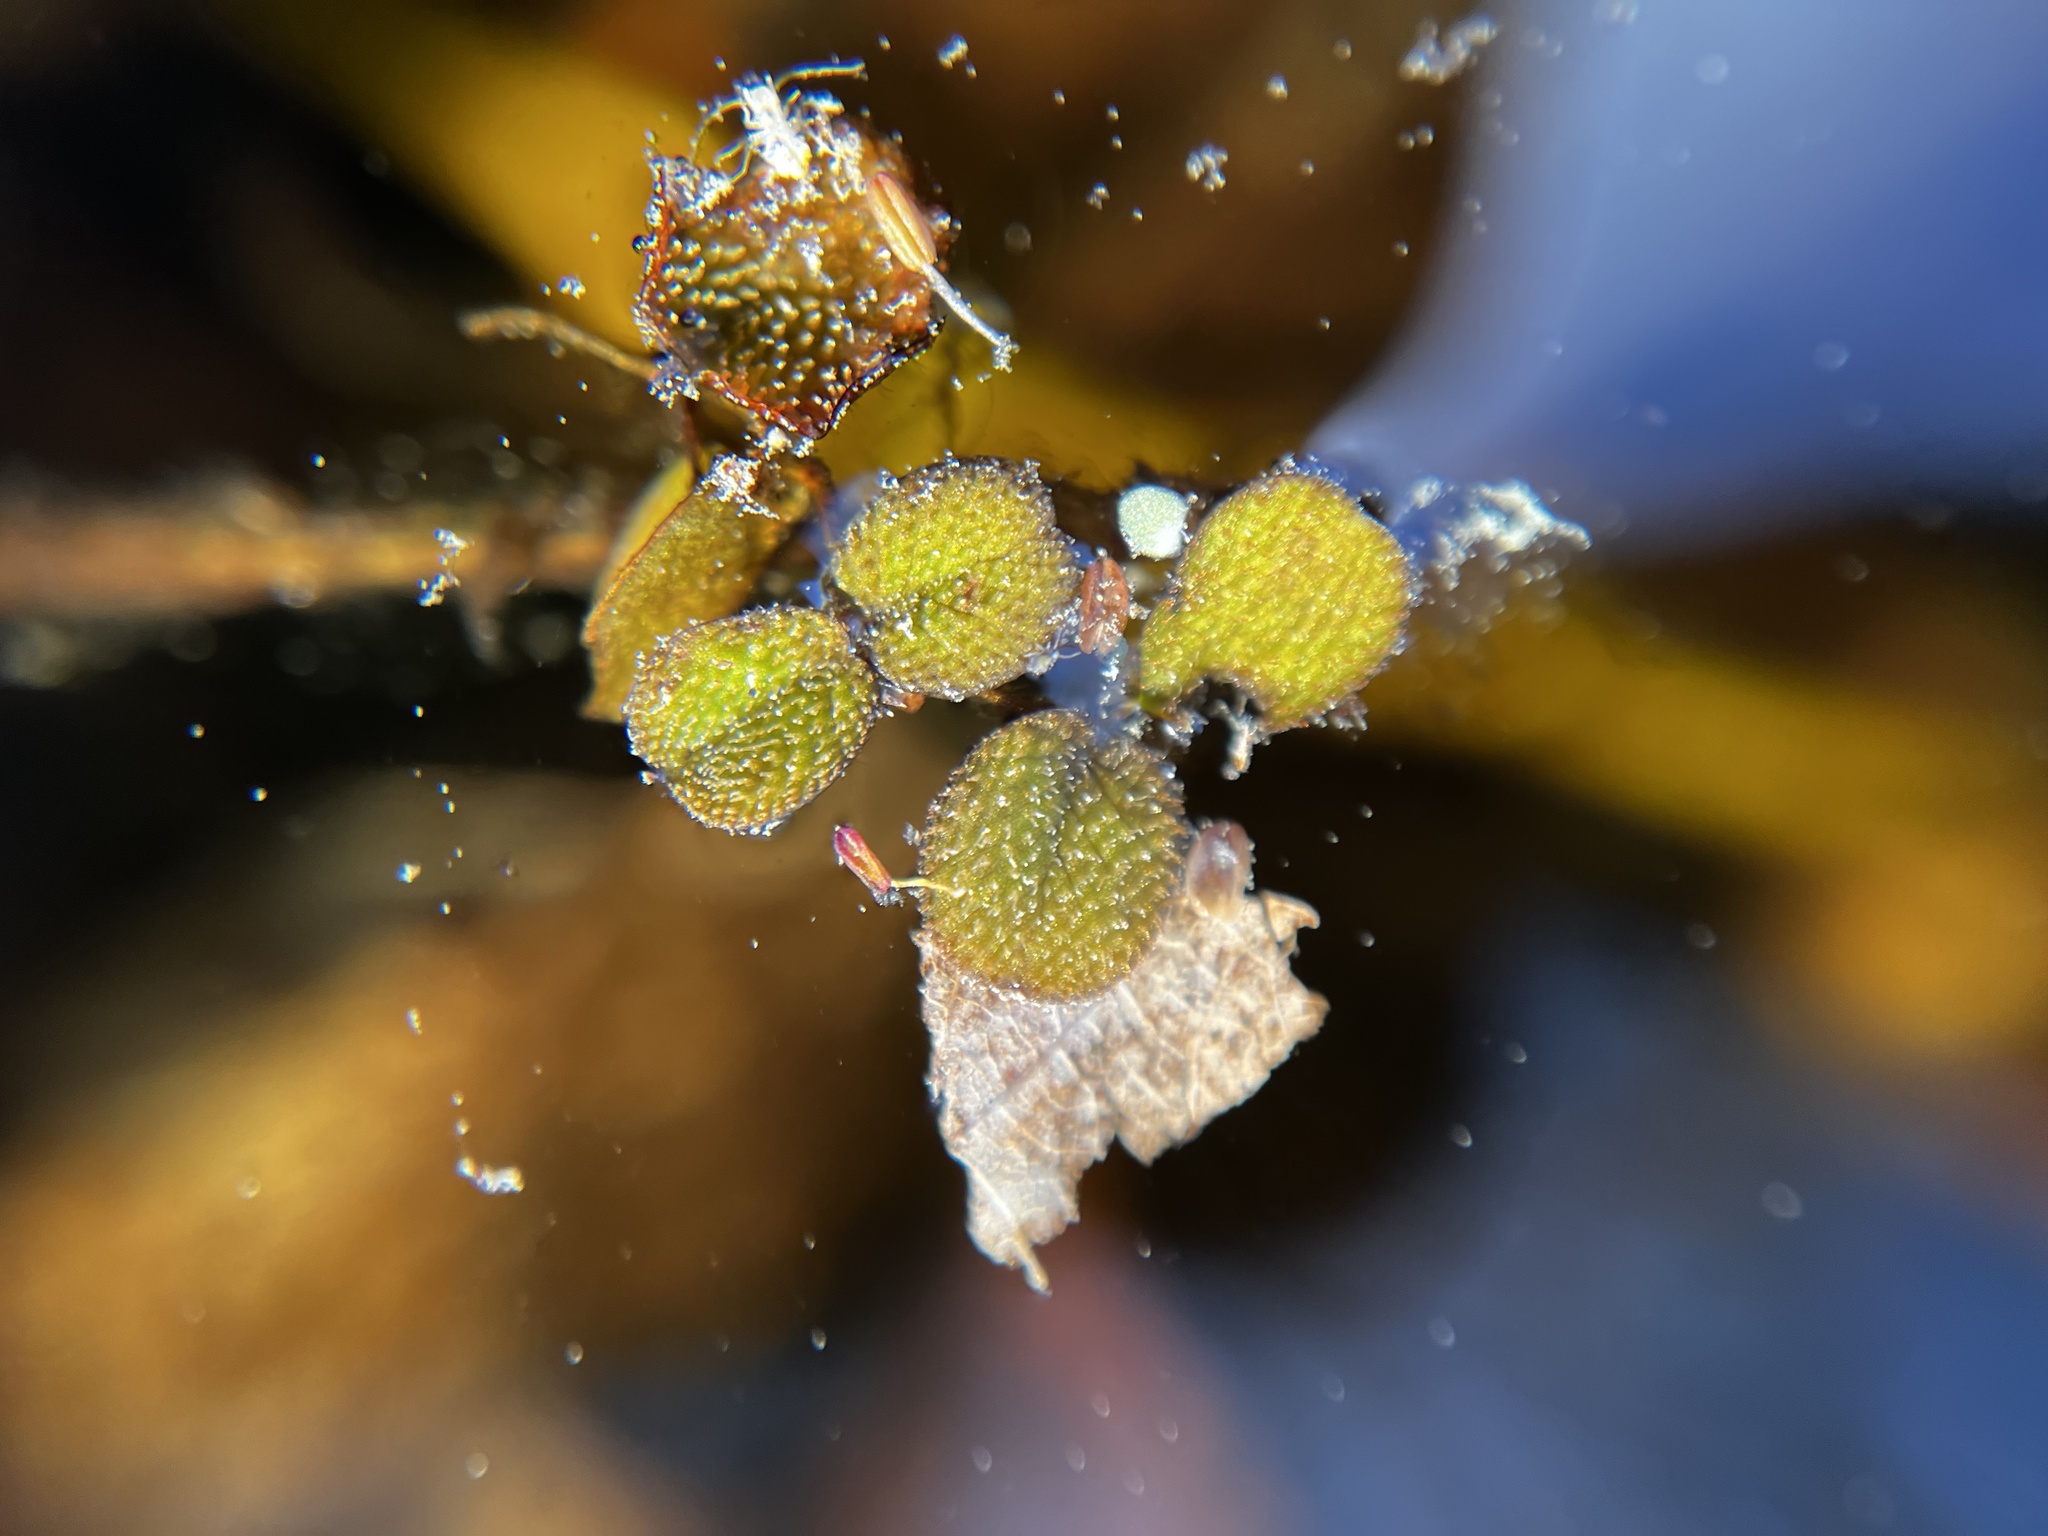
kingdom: Plantae
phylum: Tracheophyta
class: Polypodiopsida
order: Salviniales
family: Salviniaceae
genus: Salvinia
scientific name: Salvinia minima
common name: Water spangles
